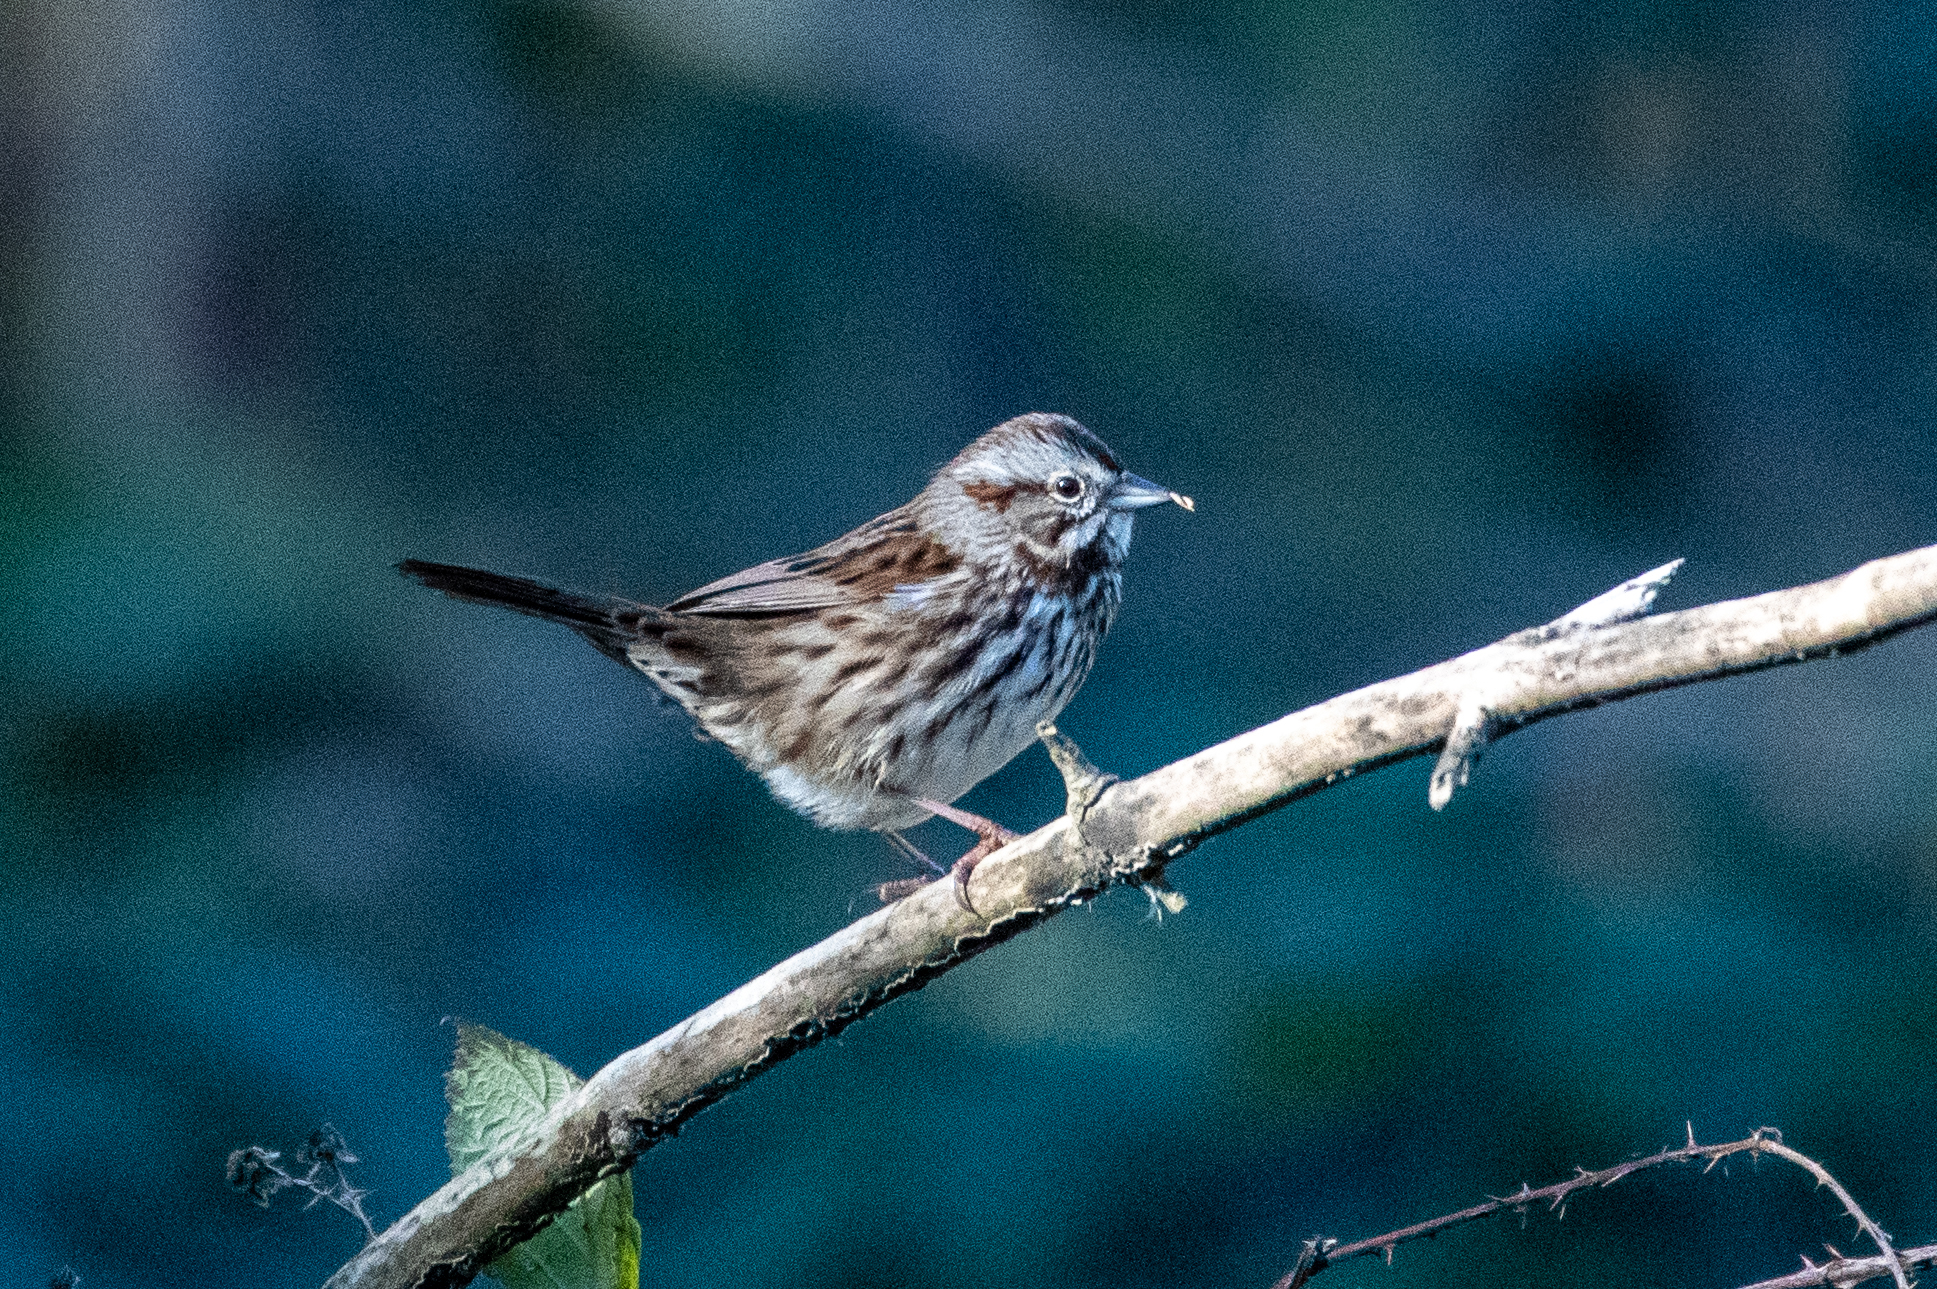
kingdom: Animalia
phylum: Chordata
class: Aves
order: Passeriformes
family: Passerellidae
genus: Melospiza
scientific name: Melospiza melodia
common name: Song sparrow
